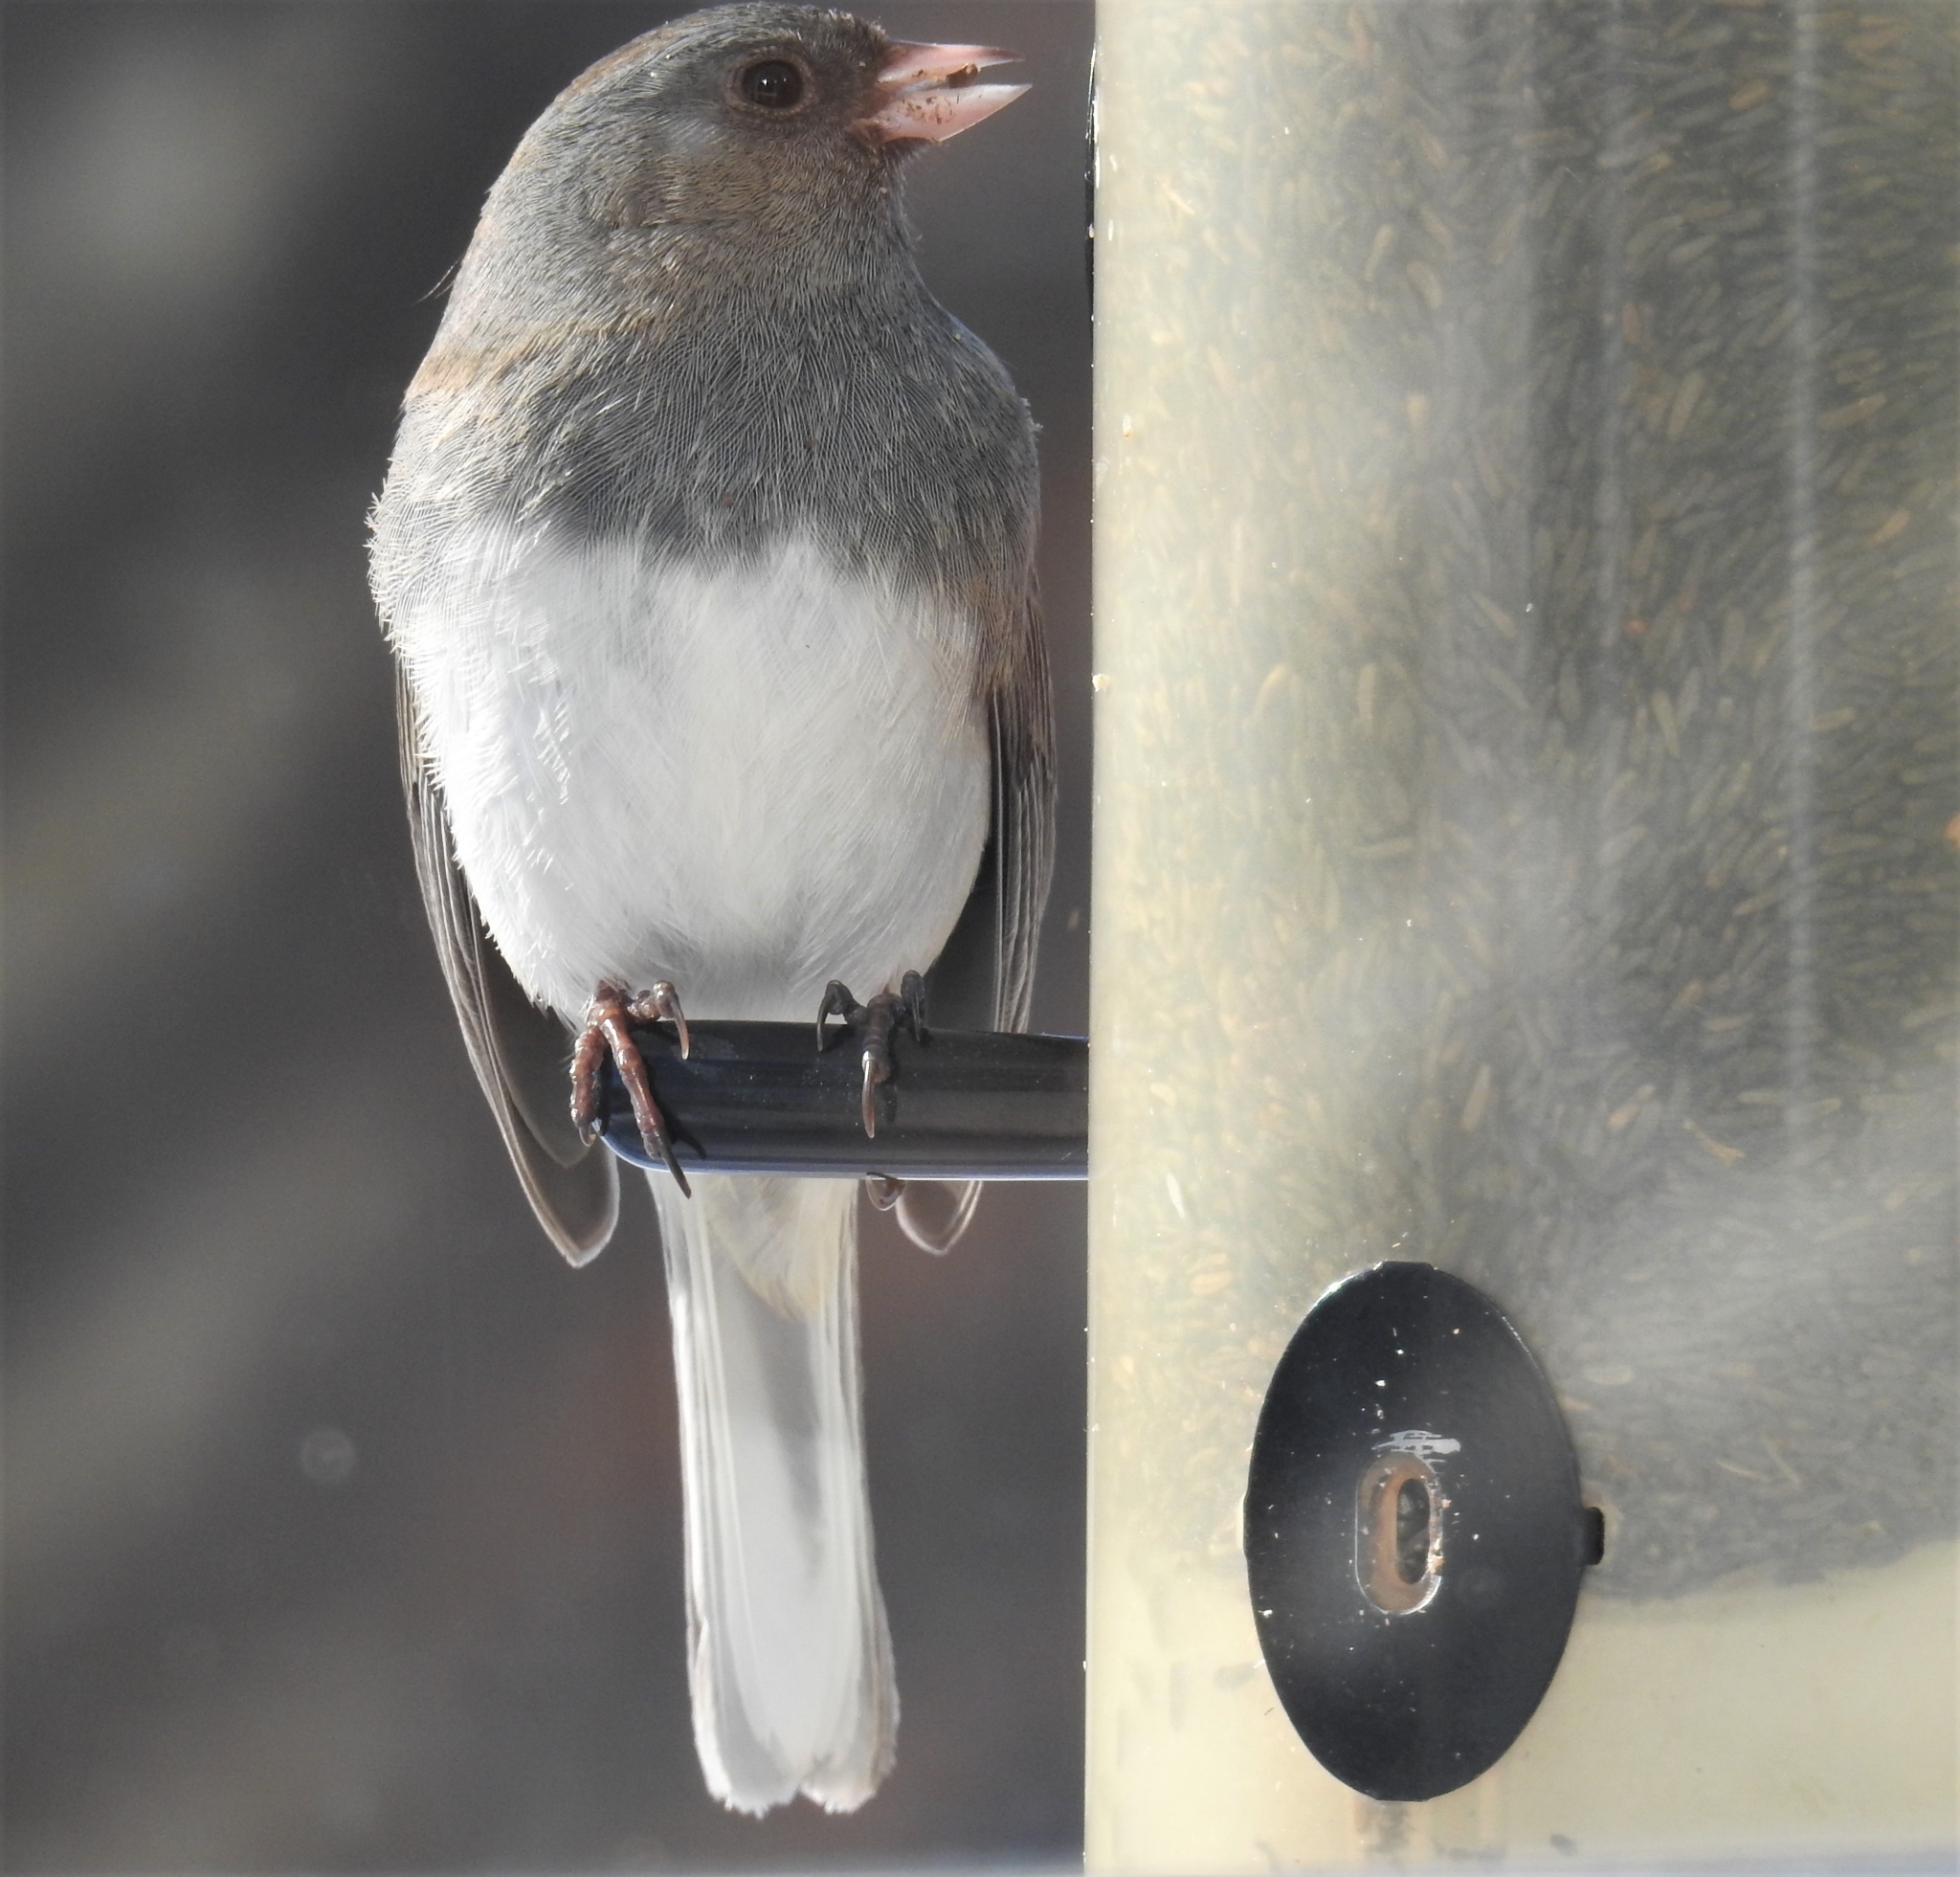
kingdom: Animalia
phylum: Chordata
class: Aves
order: Passeriformes
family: Passerellidae
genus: Junco
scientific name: Junco hyemalis
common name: Dark-eyed junco
